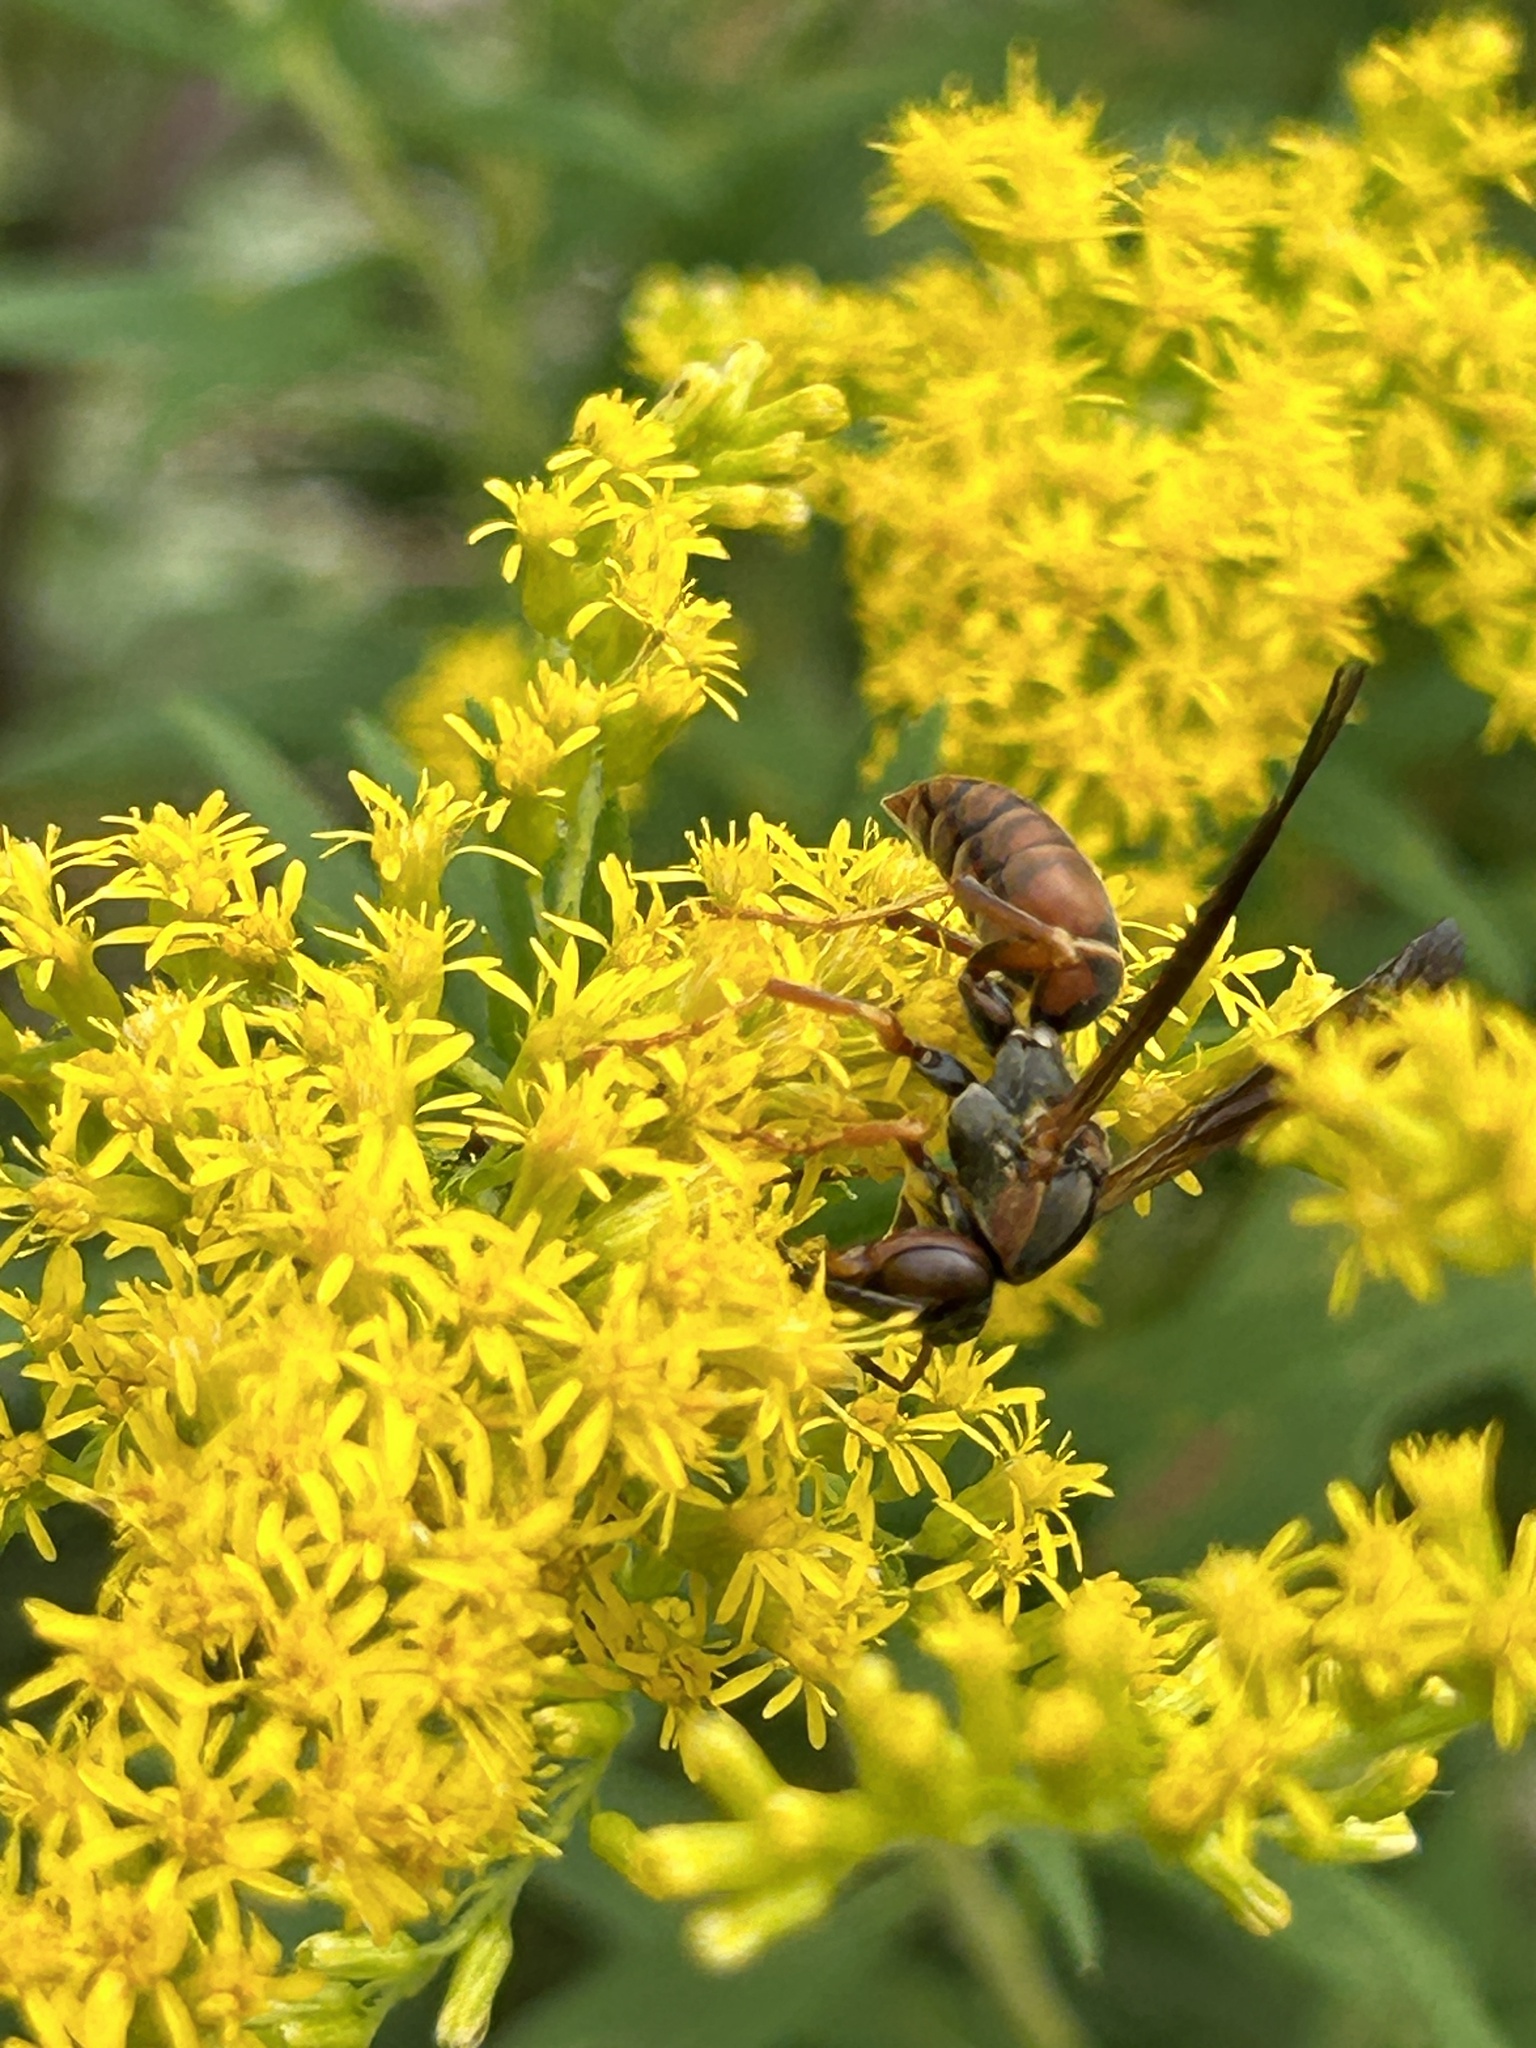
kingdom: Animalia
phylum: Arthropoda
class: Insecta
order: Hymenoptera
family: Eumenidae
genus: Polistes
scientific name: Polistes fuscatus
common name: Dark paper wasp
